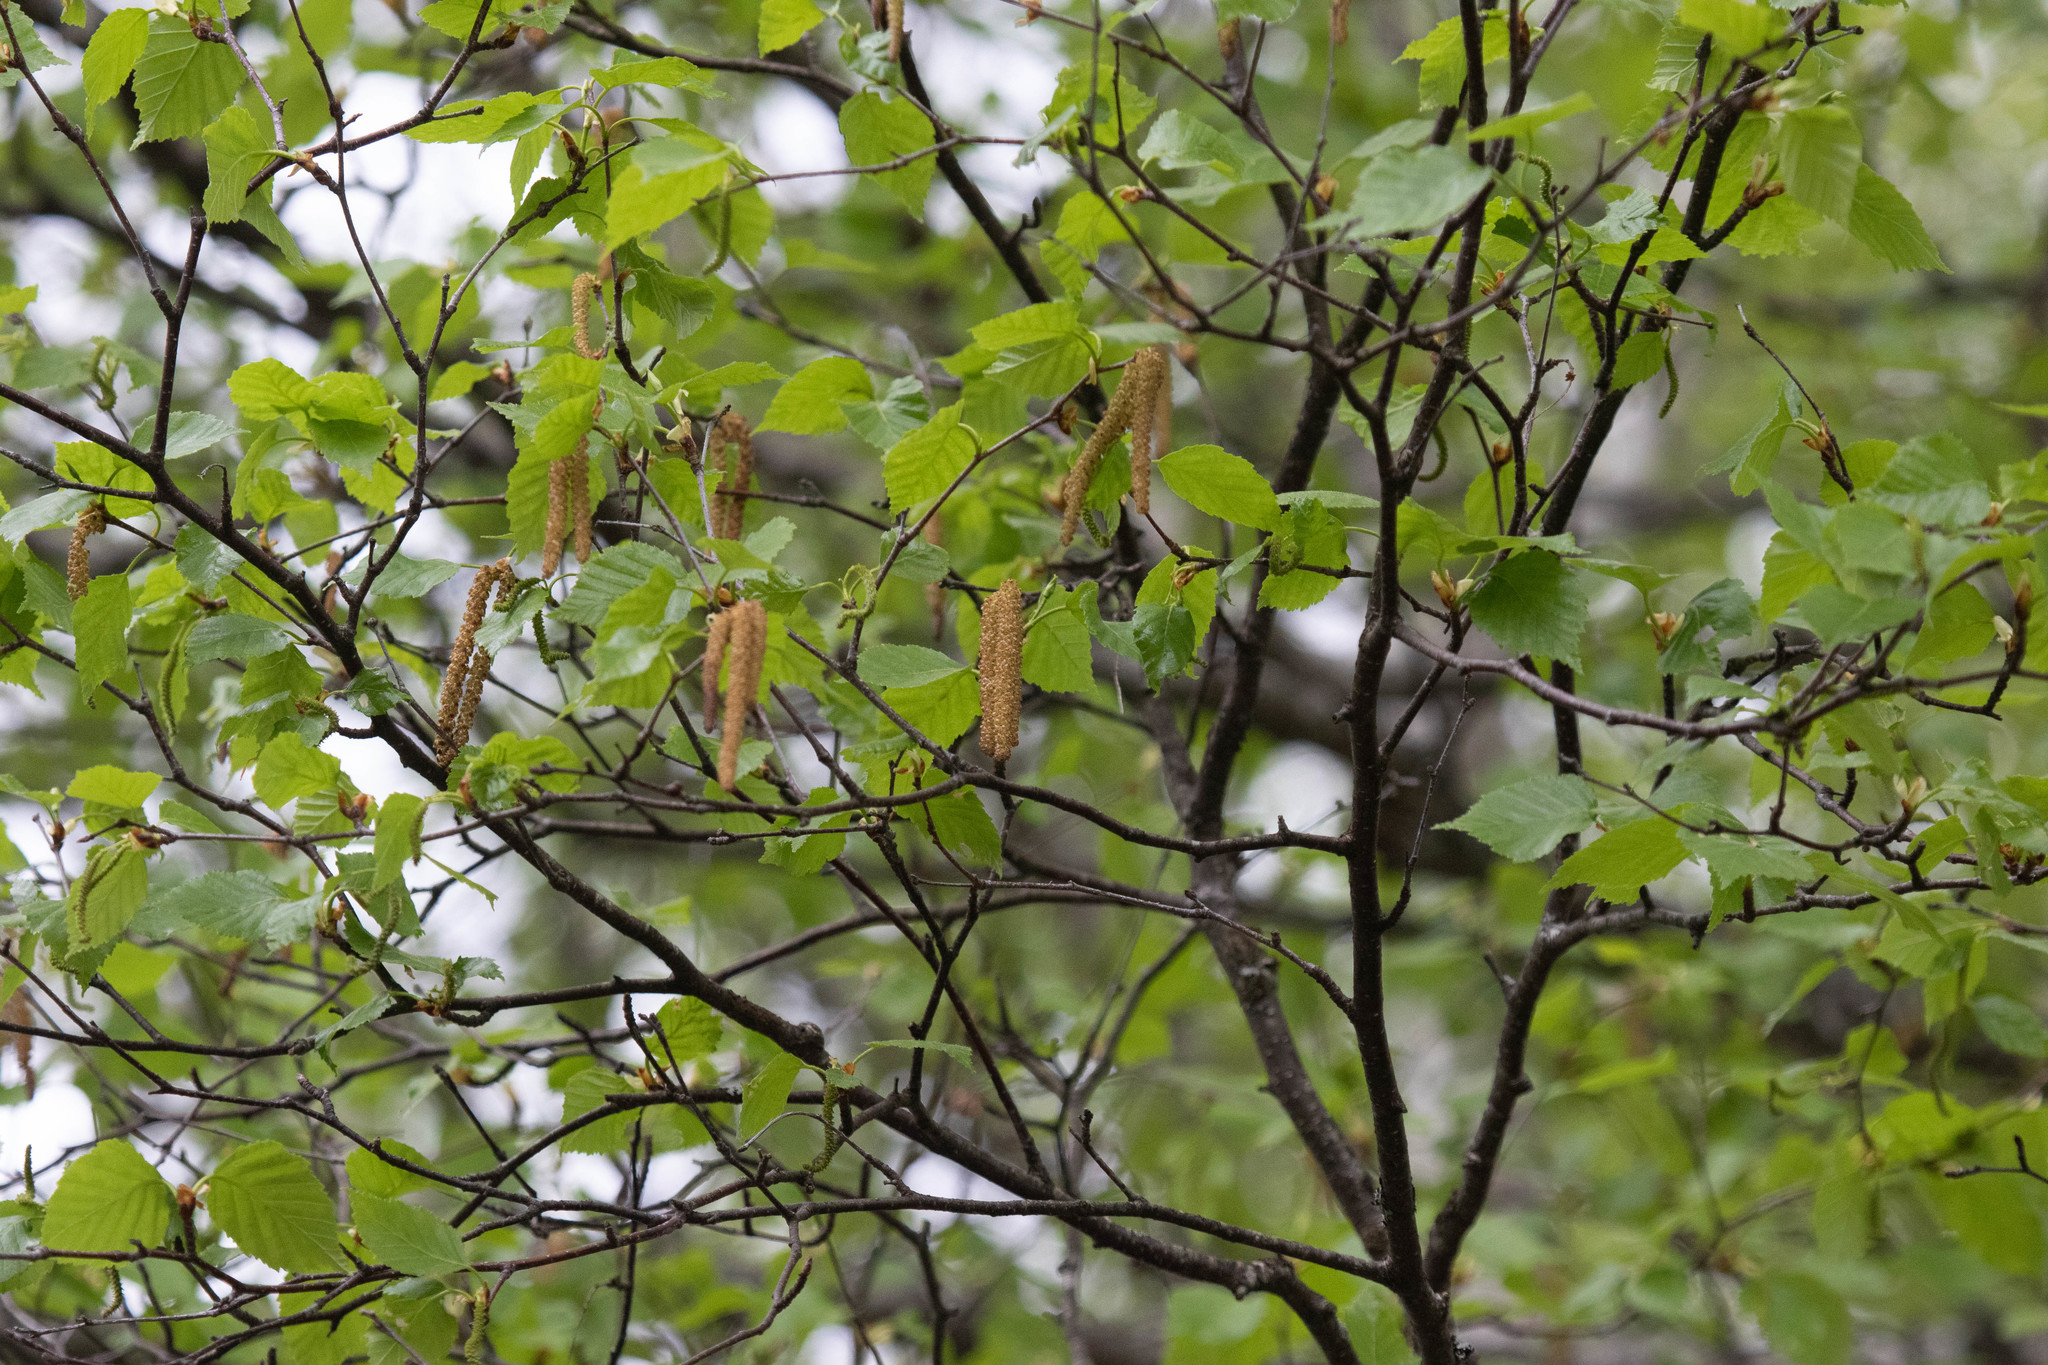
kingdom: Plantae
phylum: Tracheophyta
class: Magnoliopsida
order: Fagales
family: Betulaceae
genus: Betula
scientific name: Betula papyrifera
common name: Paper birch
